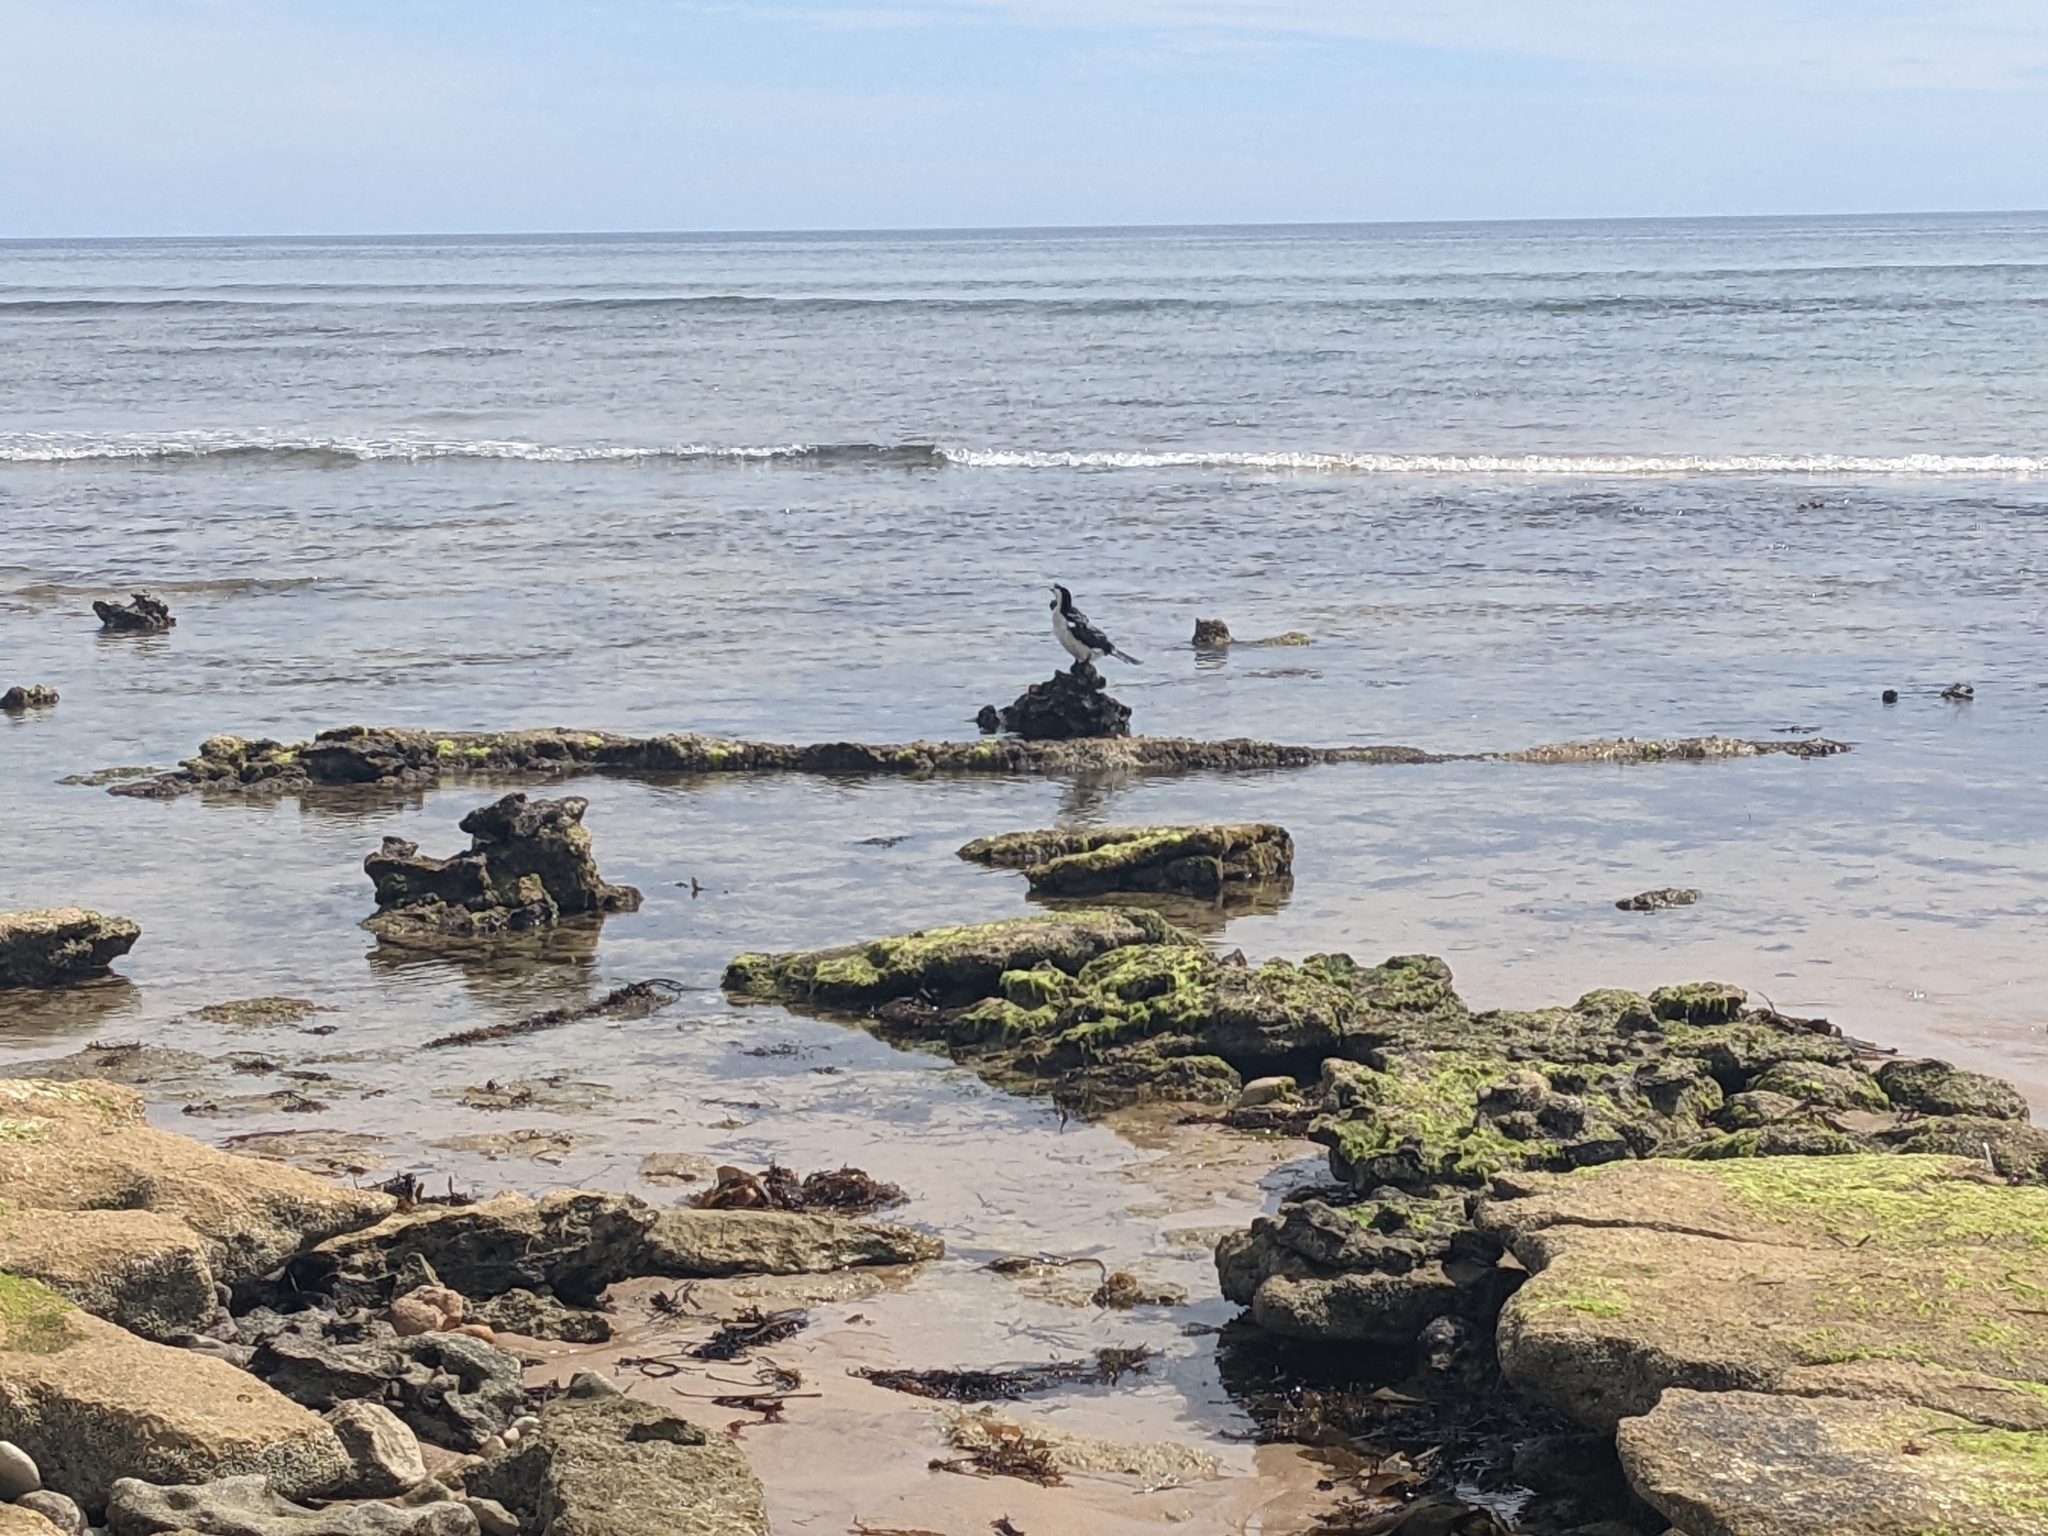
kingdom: Animalia
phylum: Chordata
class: Aves
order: Suliformes
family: Phalacrocoracidae
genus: Microcarbo
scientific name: Microcarbo melanoleucos
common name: Little pied cormorant
